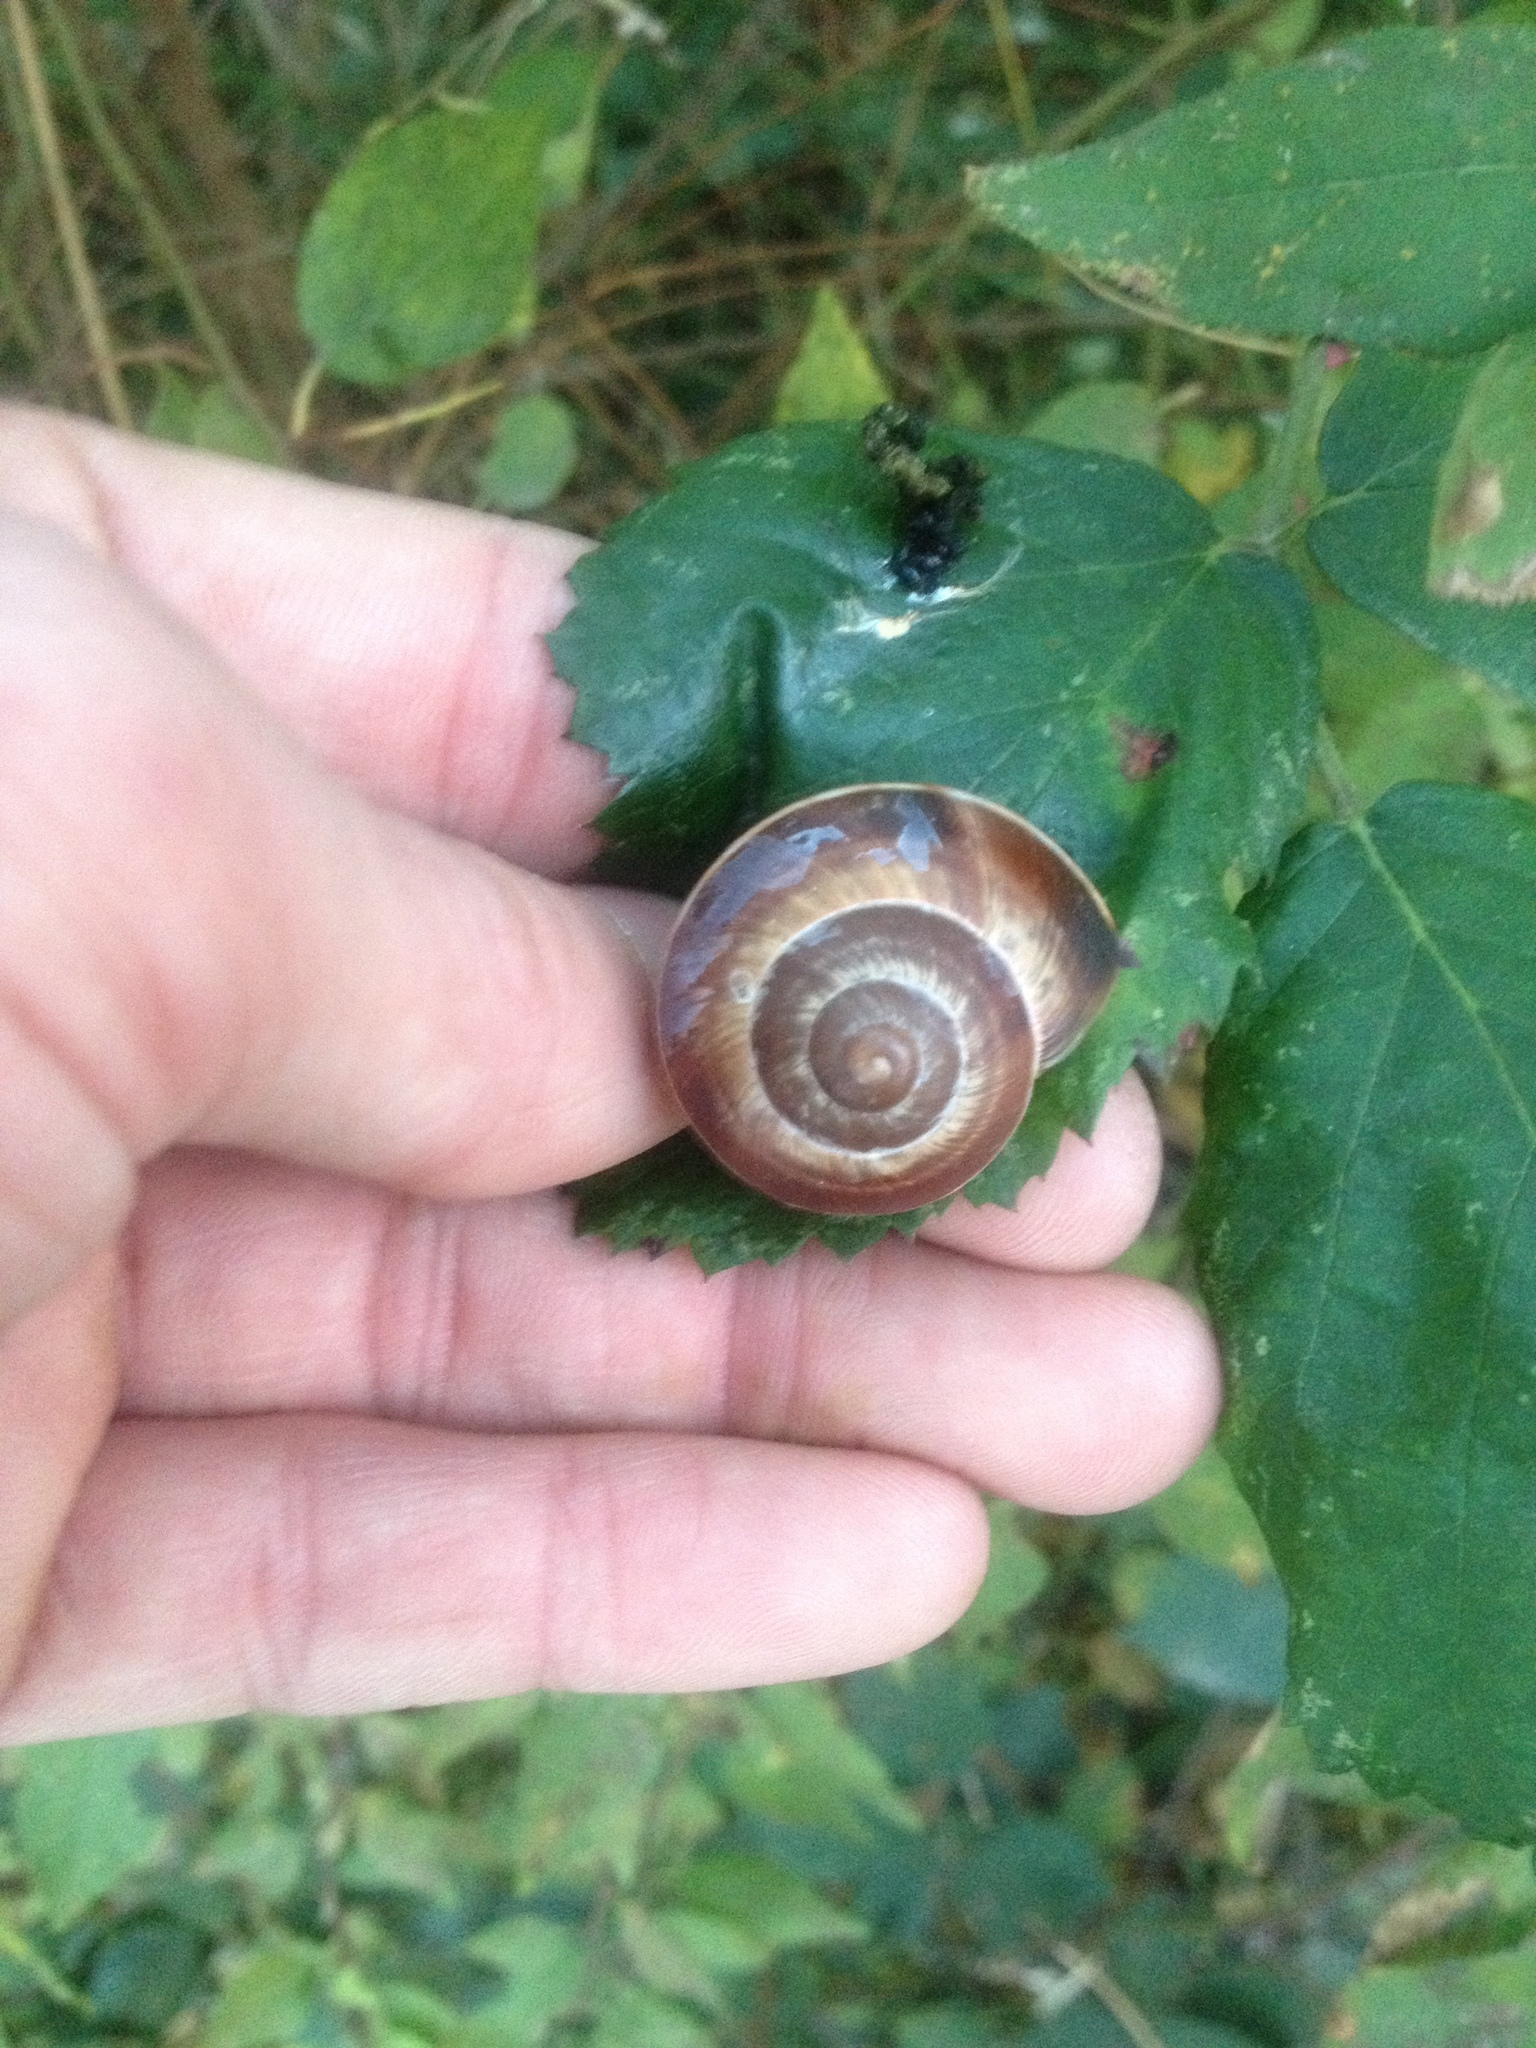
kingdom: Animalia
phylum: Mollusca
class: Gastropoda
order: Stylommatophora
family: Helicidae
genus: Helix
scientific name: Helix lucorum
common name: Turkish snail
